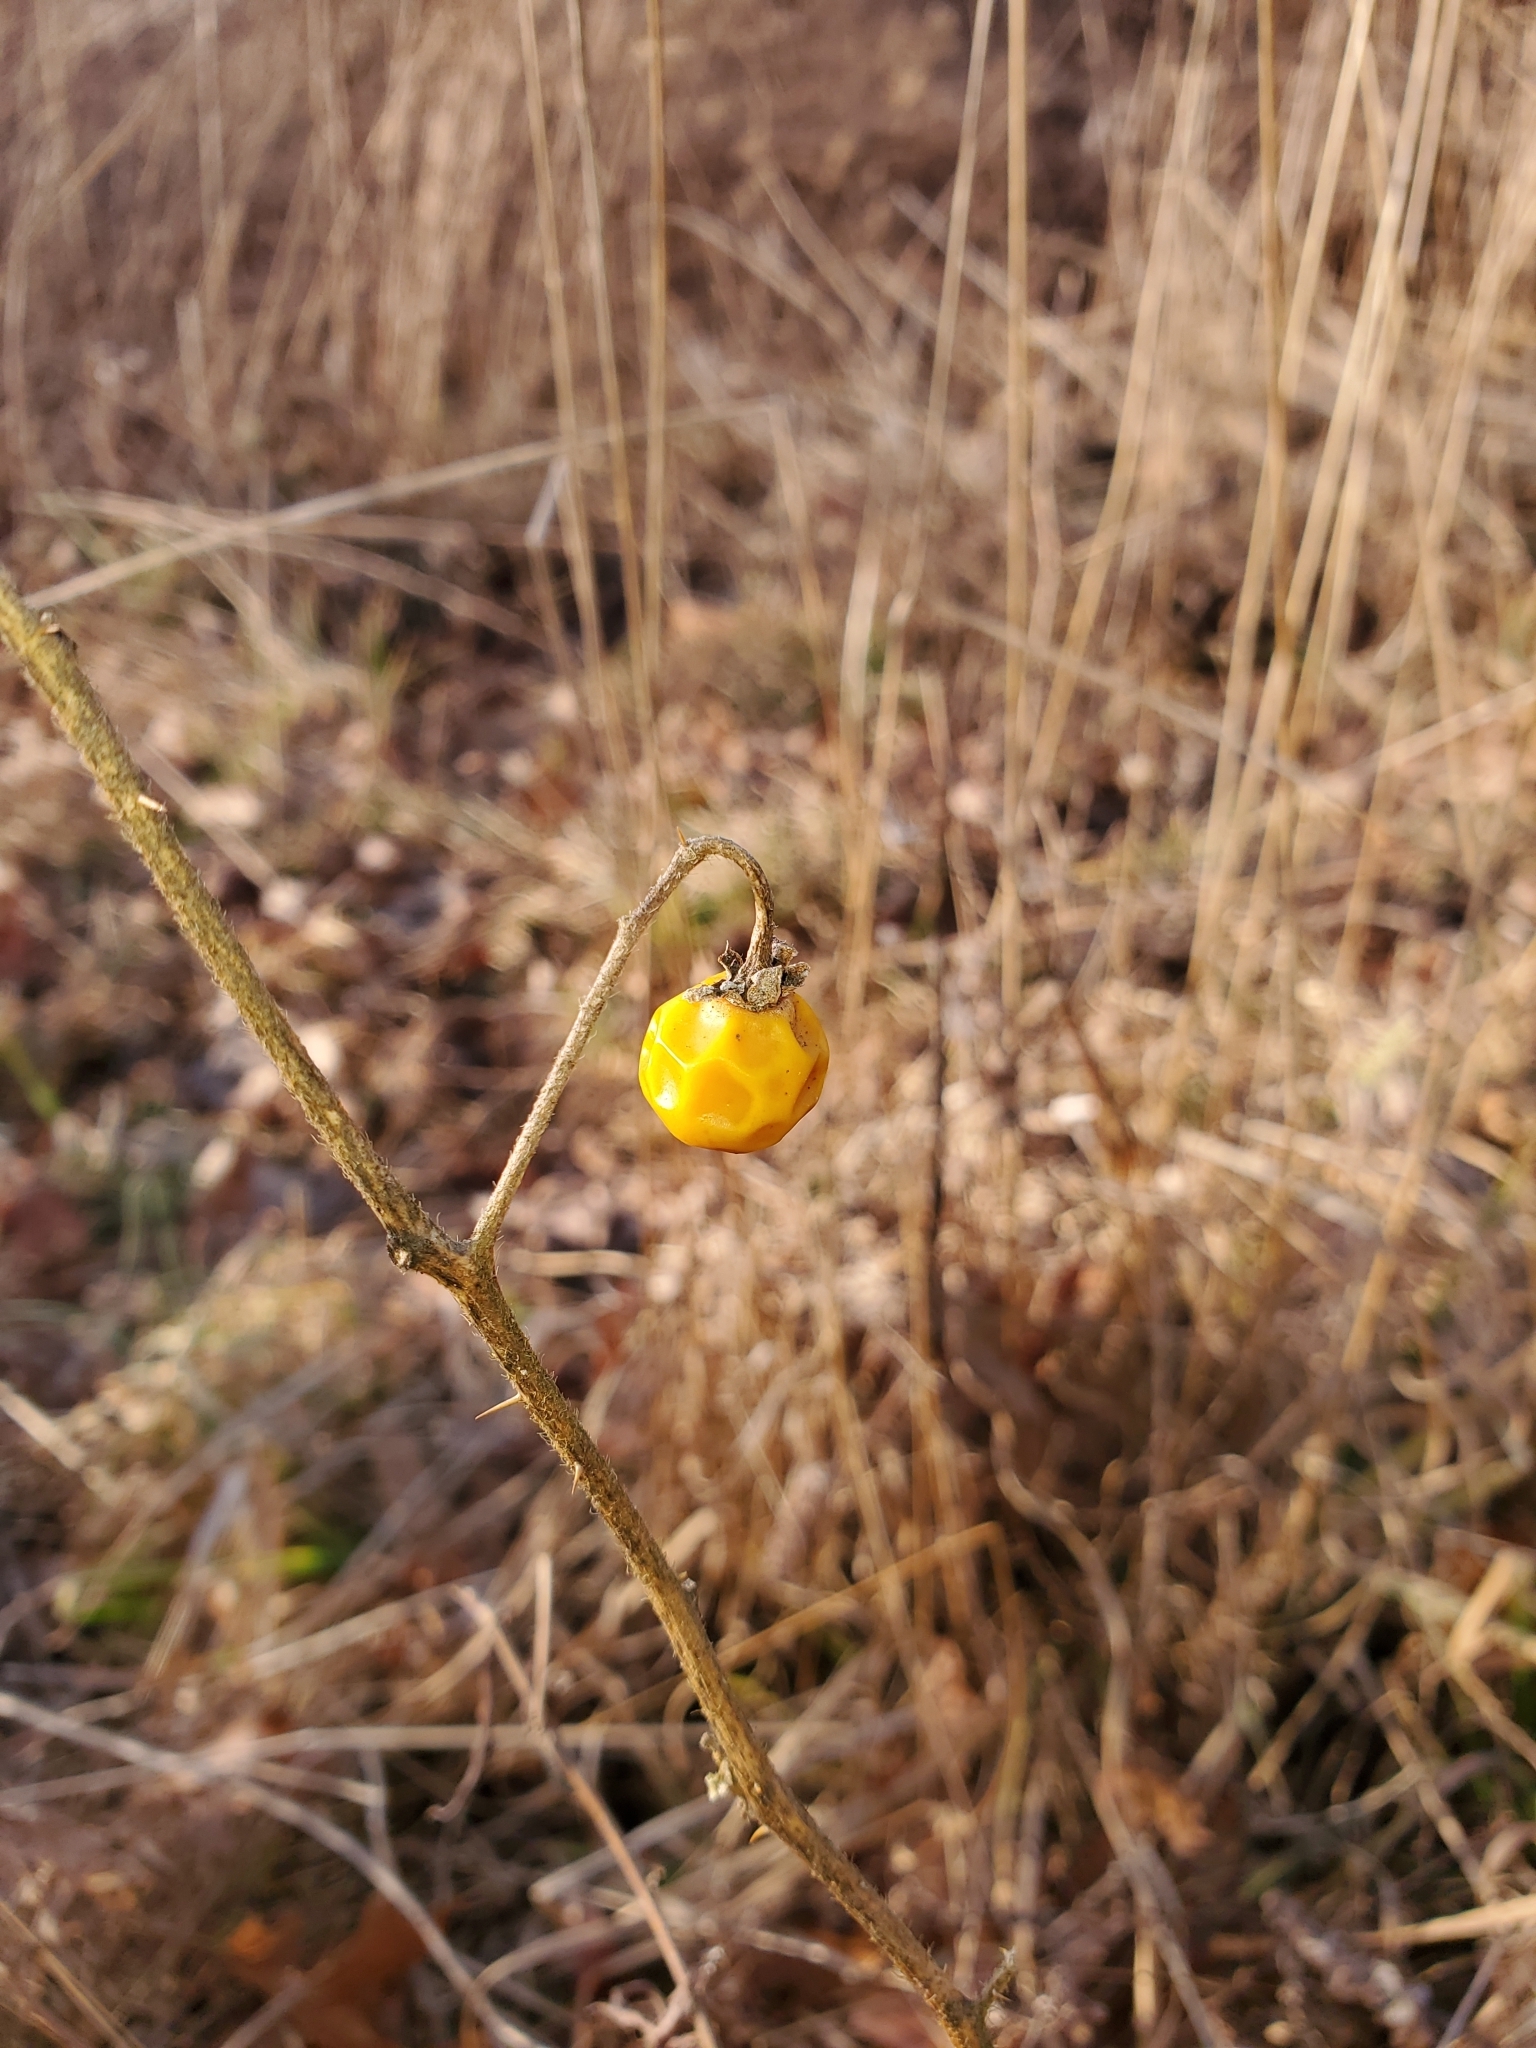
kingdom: Plantae
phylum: Tracheophyta
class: Magnoliopsida
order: Solanales
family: Solanaceae
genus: Solanum
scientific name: Solanum carolinense
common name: Horse-nettle
